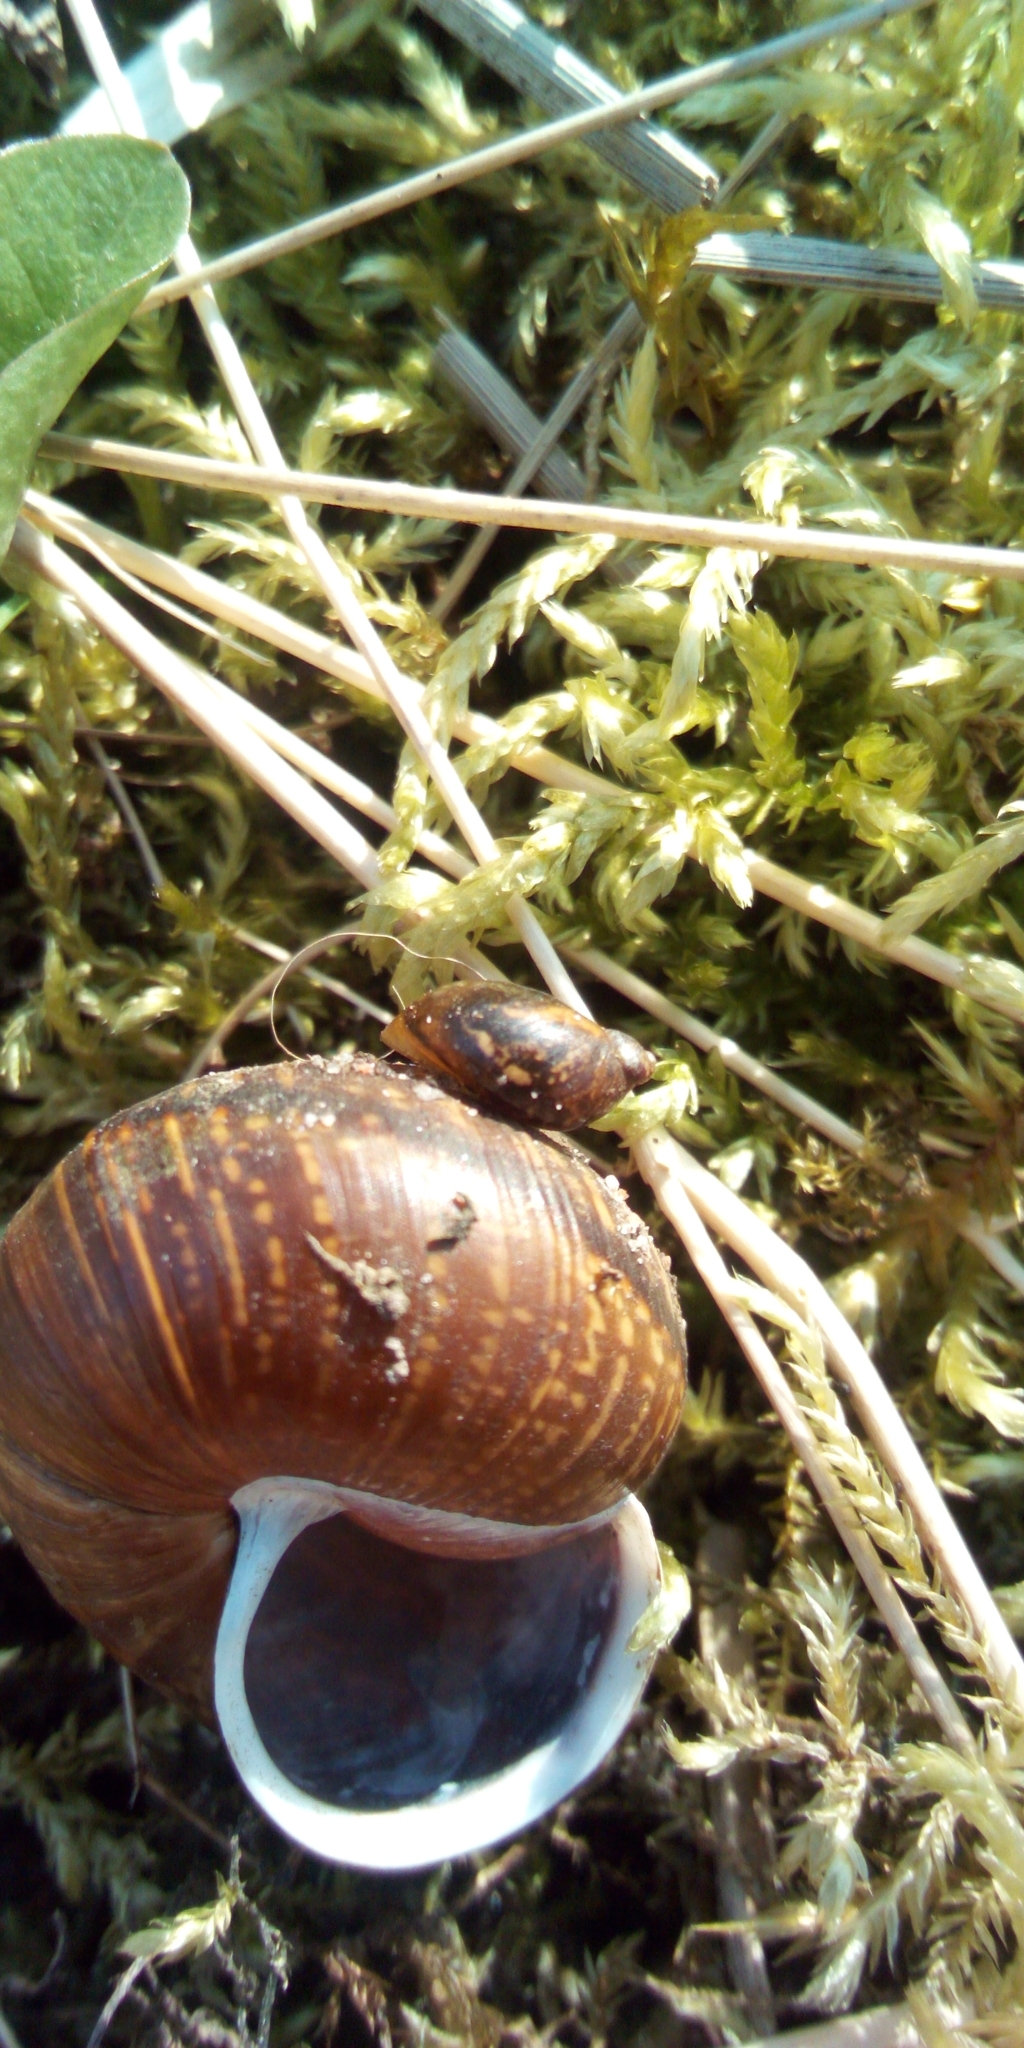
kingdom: Animalia
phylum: Mollusca
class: Gastropoda
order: Stylommatophora
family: Succineidae
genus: Succinea
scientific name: Succinea putris
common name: European ambersnail
